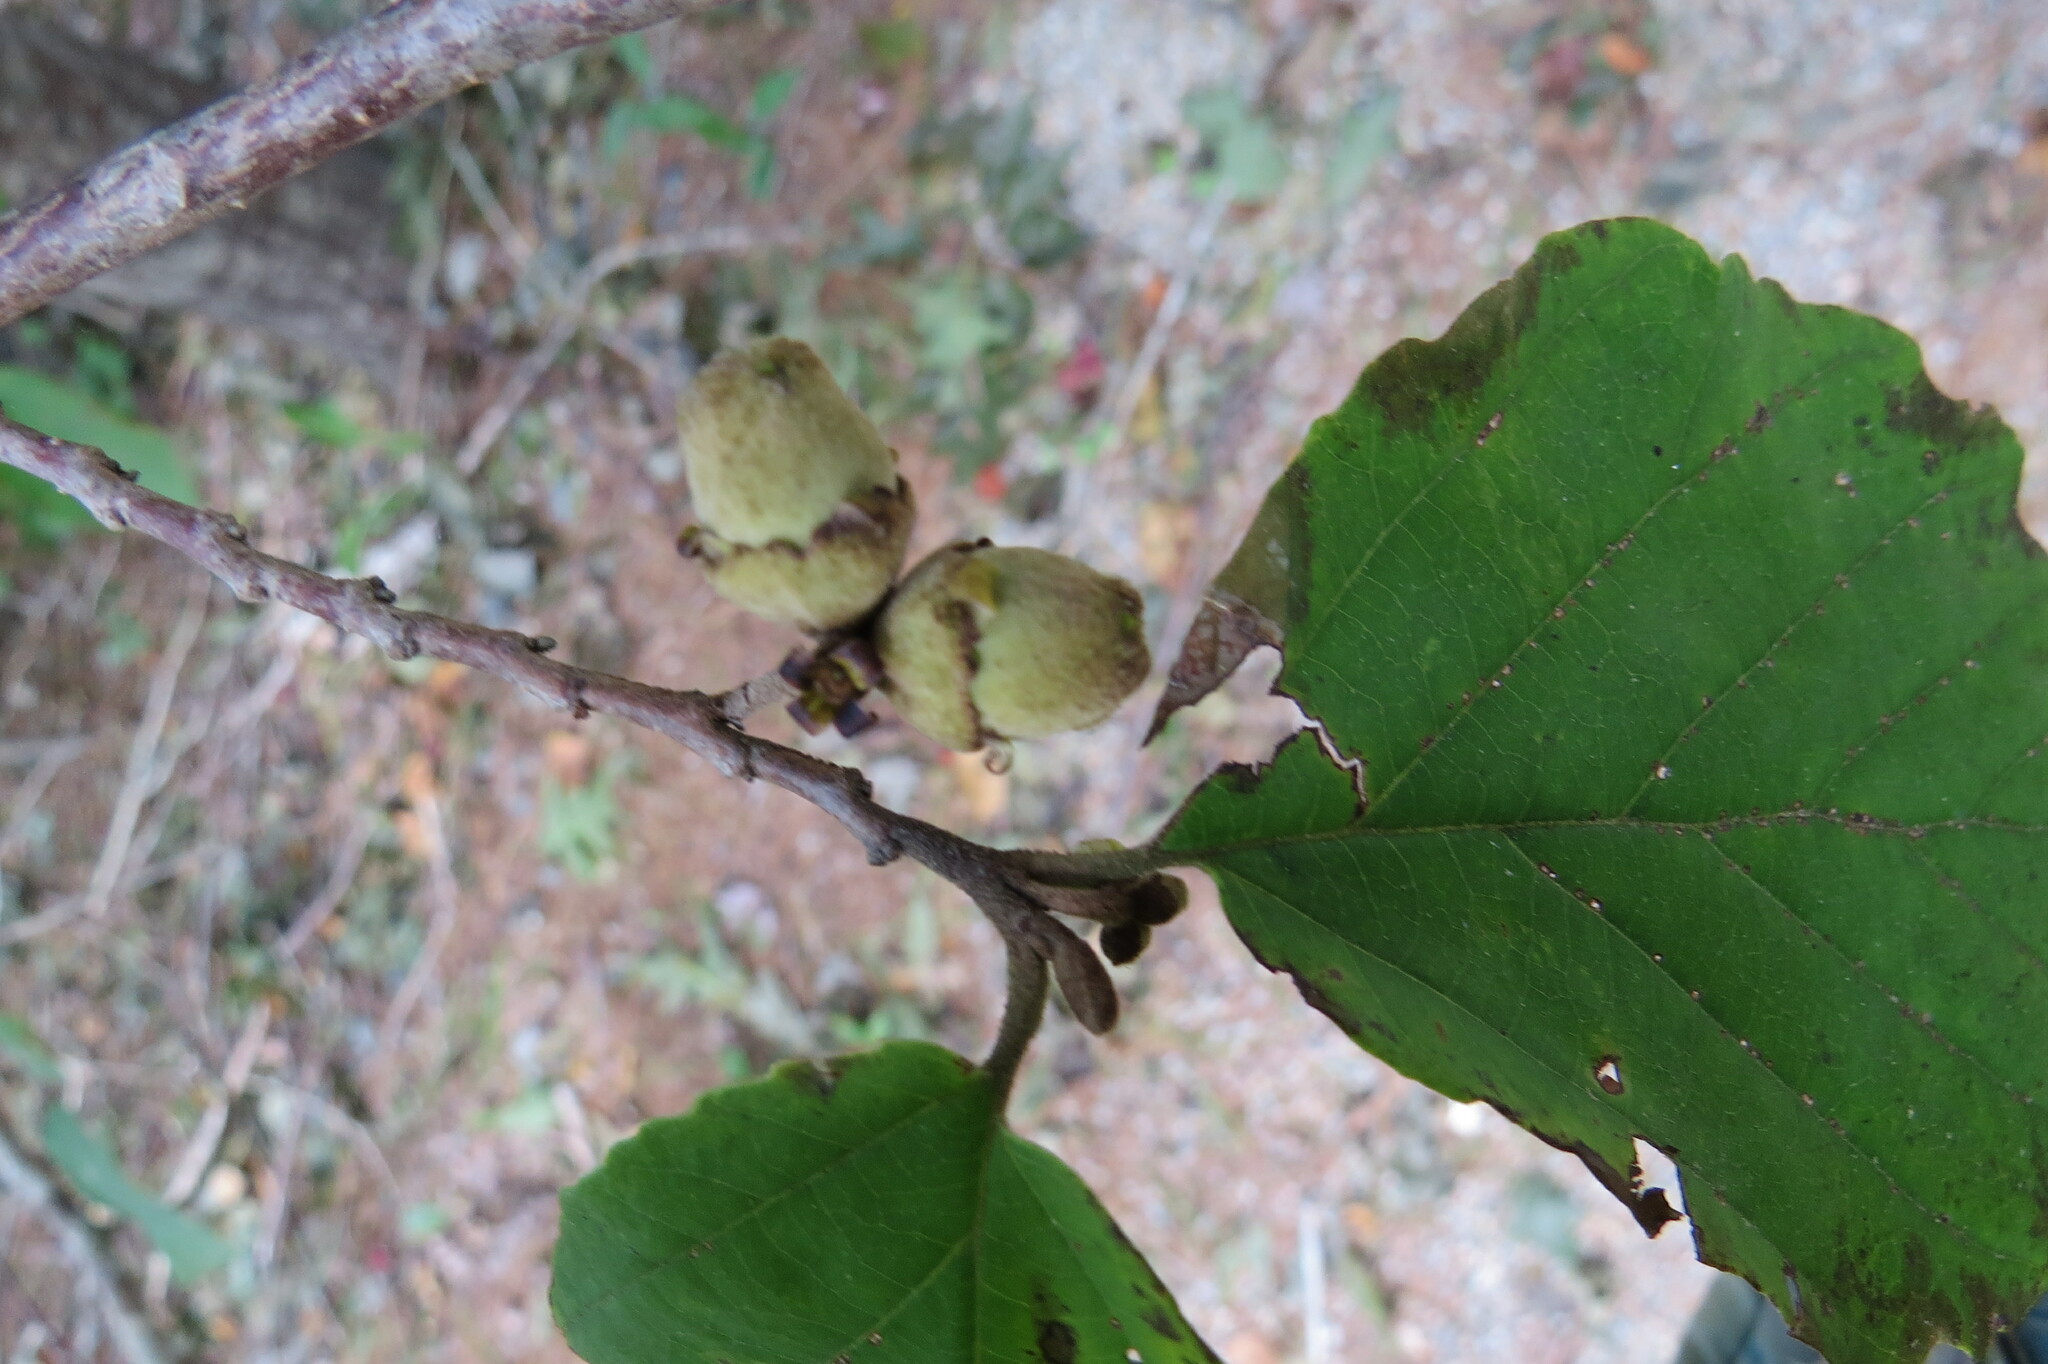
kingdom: Plantae
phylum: Tracheophyta
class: Magnoliopsida
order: Saxifragales
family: Hamamelidaceae
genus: Hamamelis
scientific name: Hamamelis virginiana
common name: Witch-hazel
